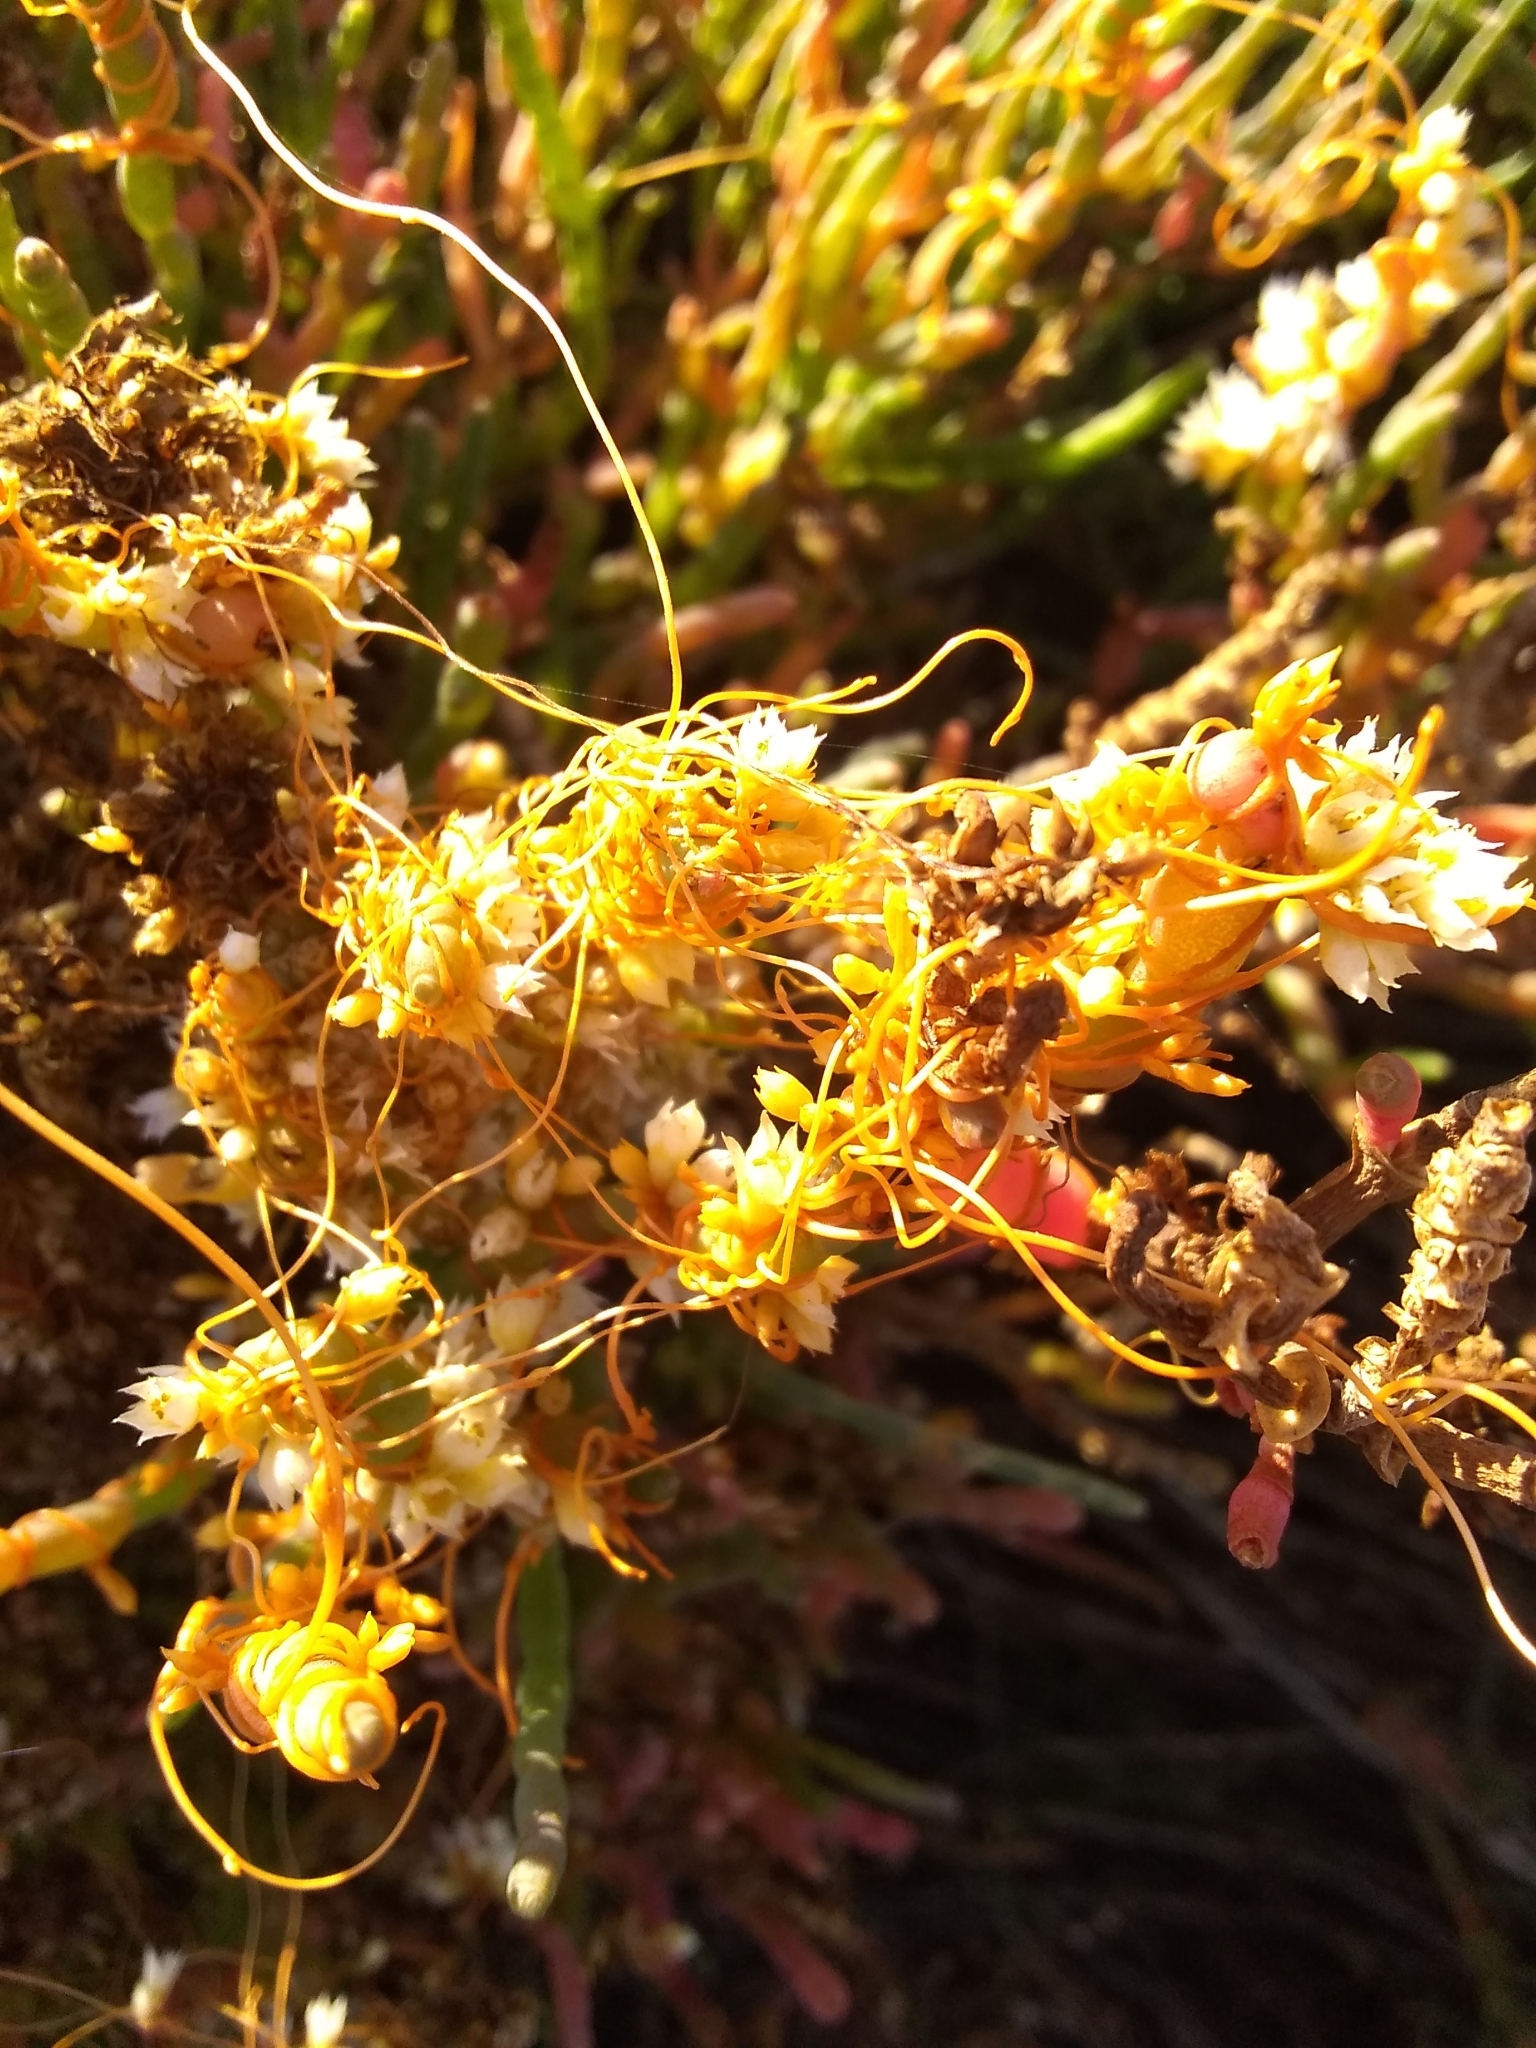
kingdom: Plantae
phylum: Tracheophyta
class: Magnoliopsida
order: Solanales
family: Convolvulaceae
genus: Cuscuta
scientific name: Cuscuta pacifica
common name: Large saltmarsh dodder
